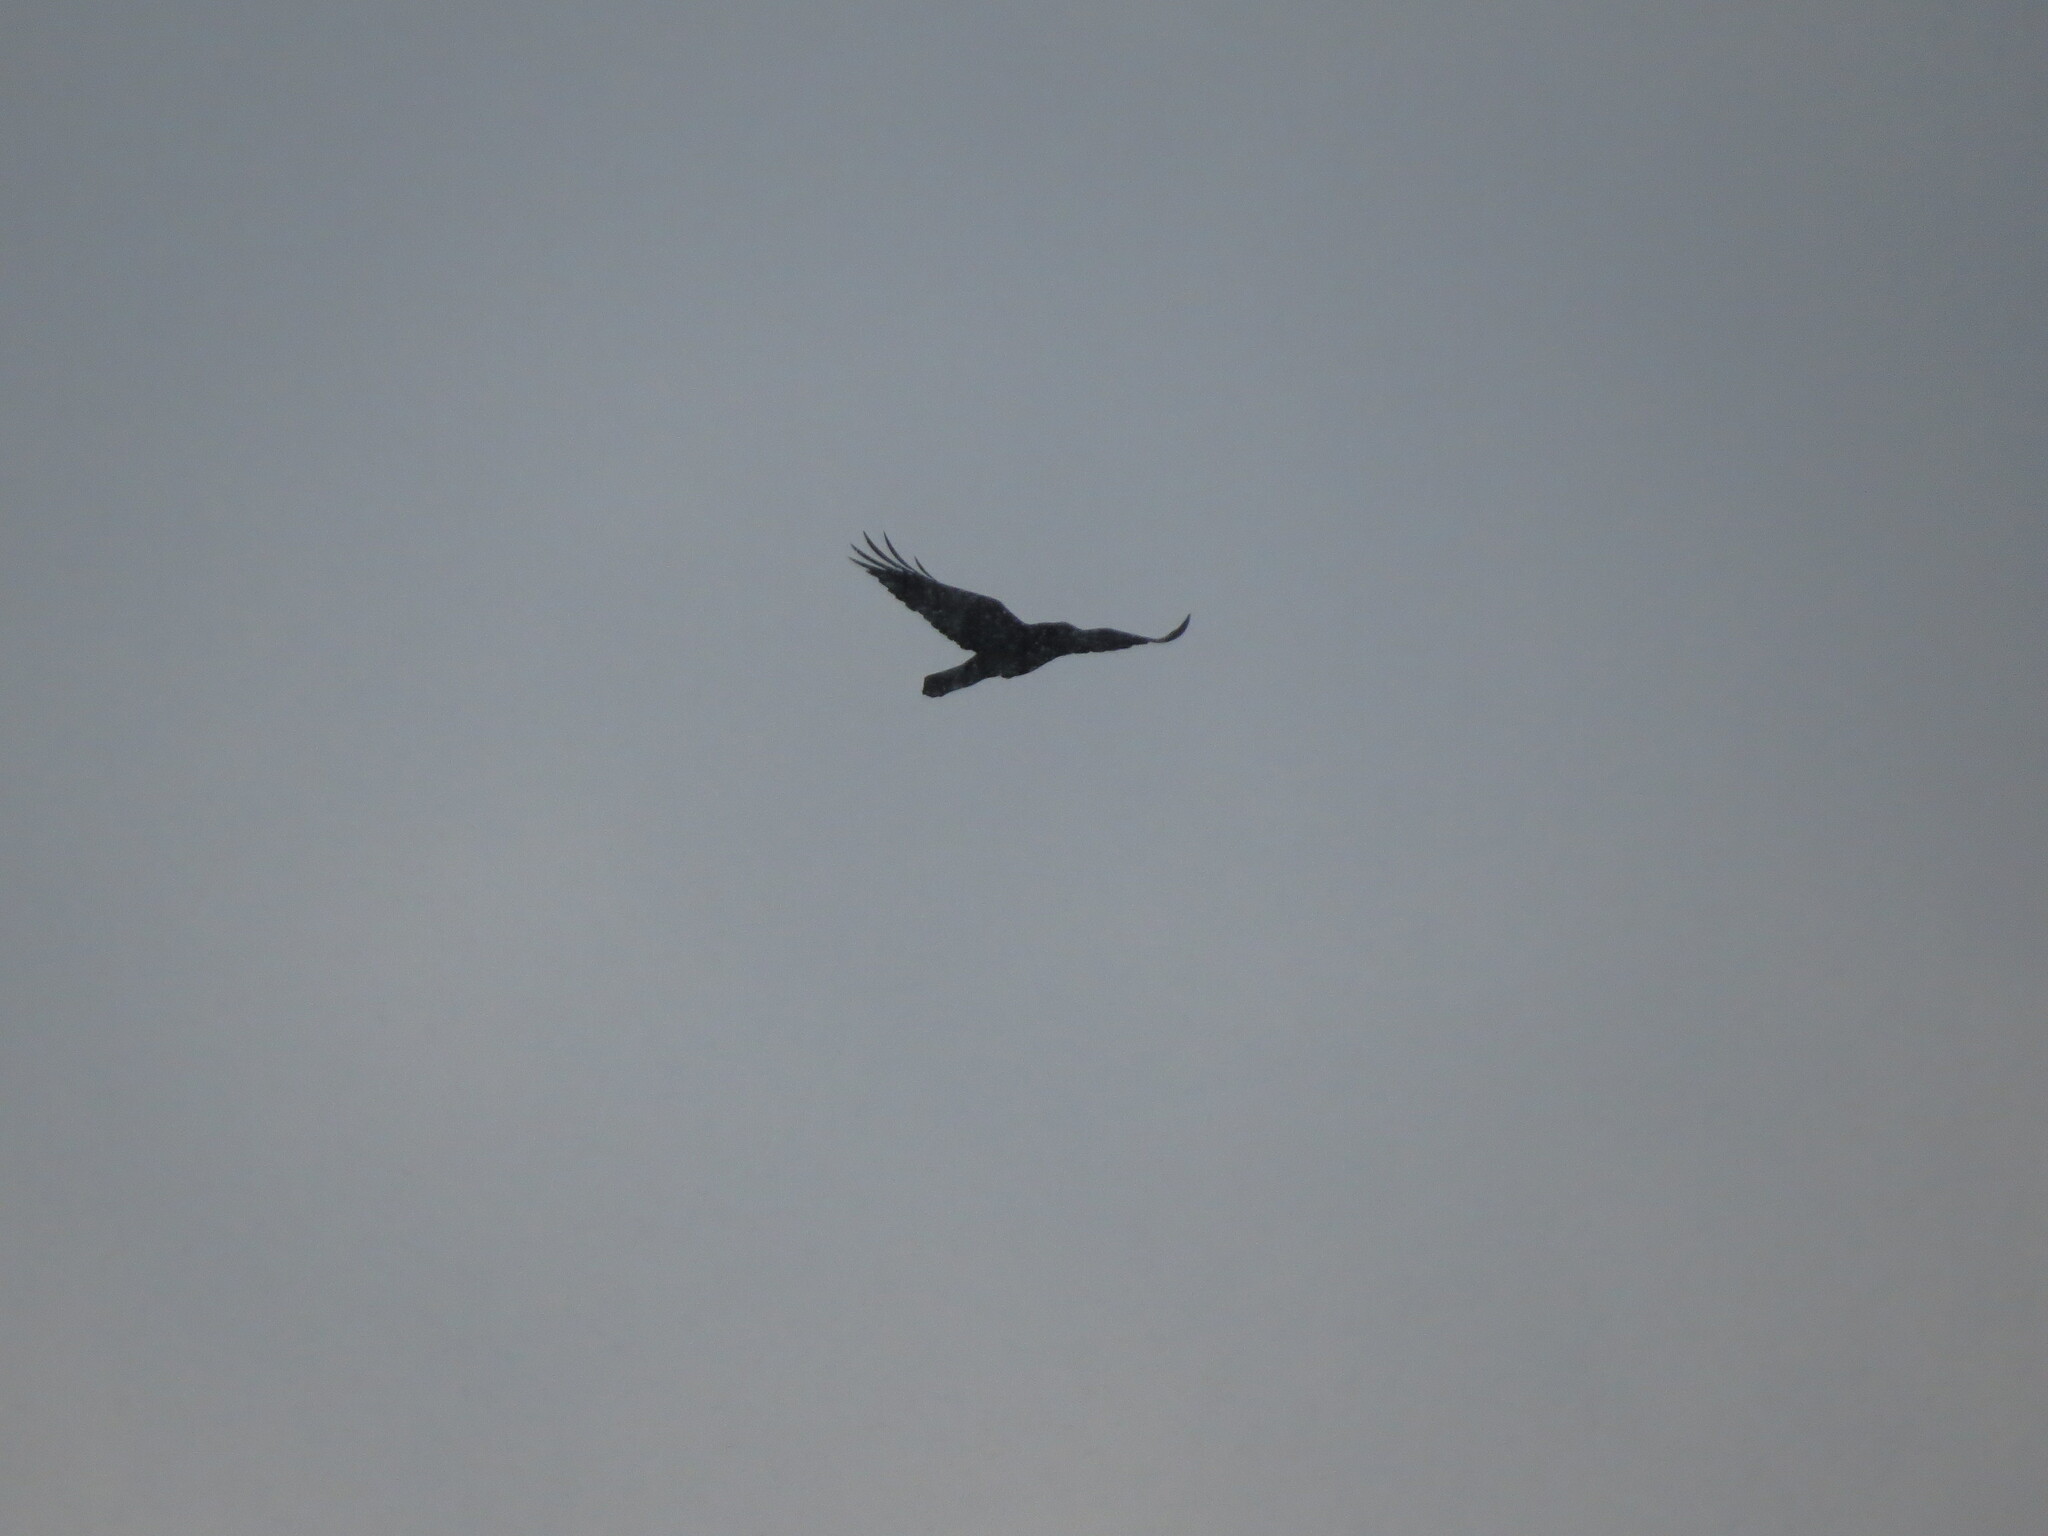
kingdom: Animalia
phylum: Chordata
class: Aves
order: Passeriformes
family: Corvidae
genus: Corvus
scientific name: Corvus corax
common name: Common raven
